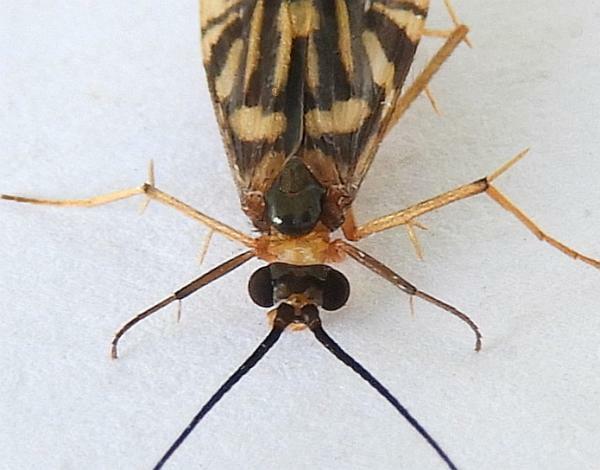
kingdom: Animalia
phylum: Arthropoda
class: Insecta
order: Trichoptera
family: Hydropsychidae
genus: Macrostemum
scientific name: Macrostemum carolina
